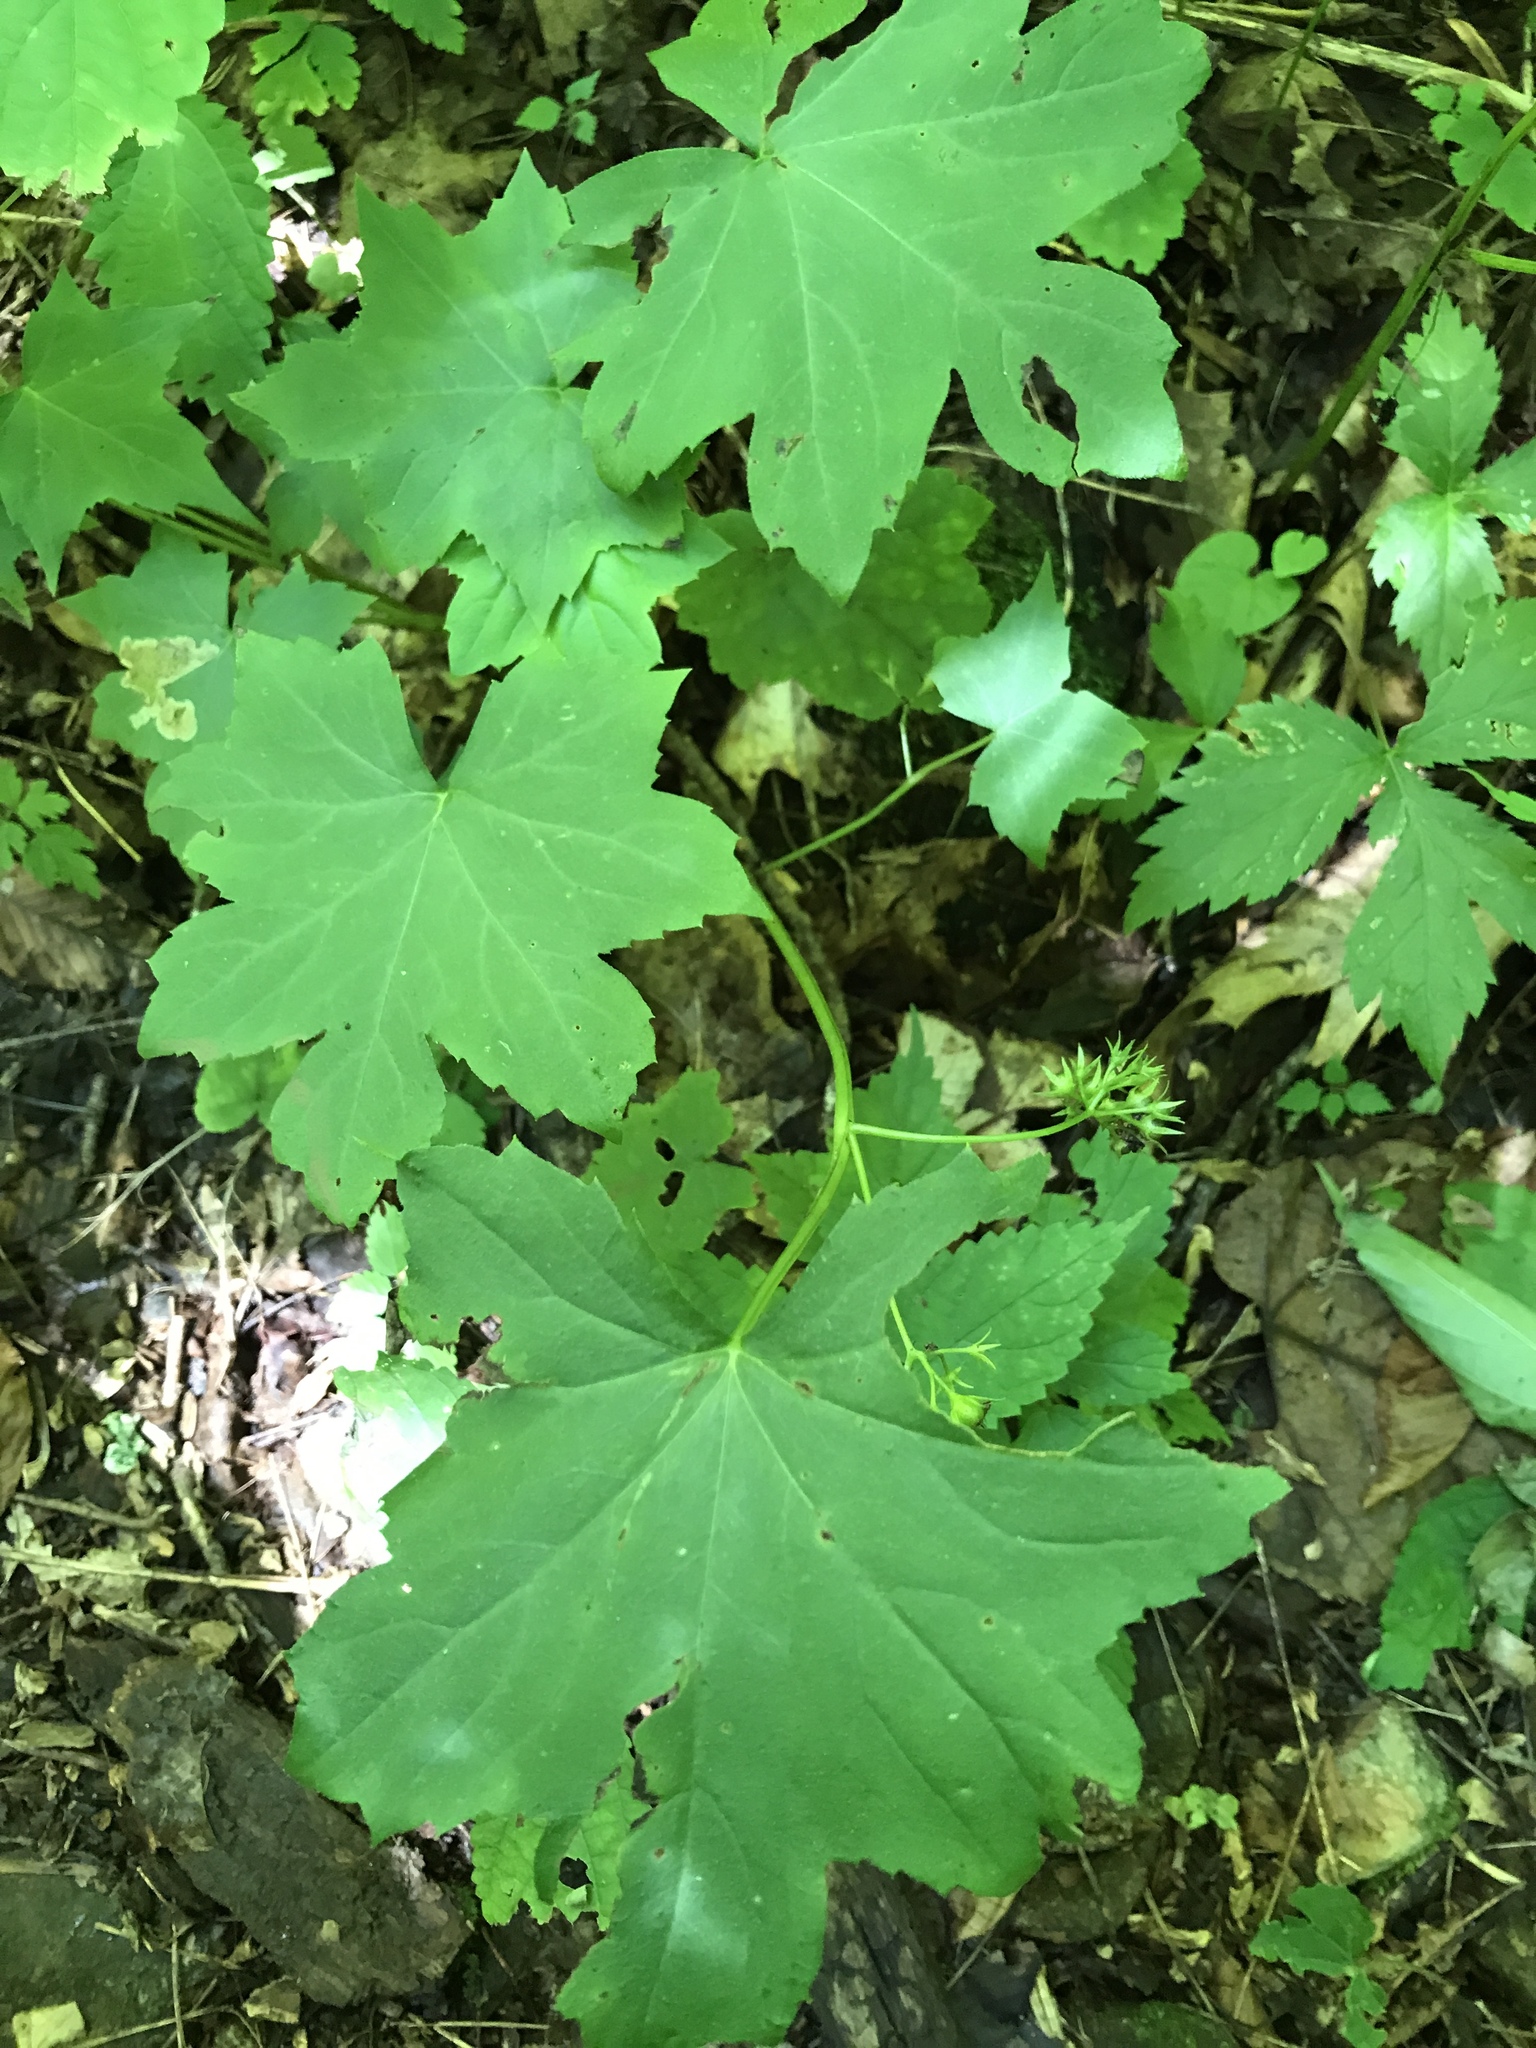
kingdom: Plantae
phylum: Tracheophyta
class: Magnoliopsida
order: Boraginales
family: Hydrophyllaceae
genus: Hydrophyllum
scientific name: Hydrophyllum canadense
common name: Canada waterleaf
